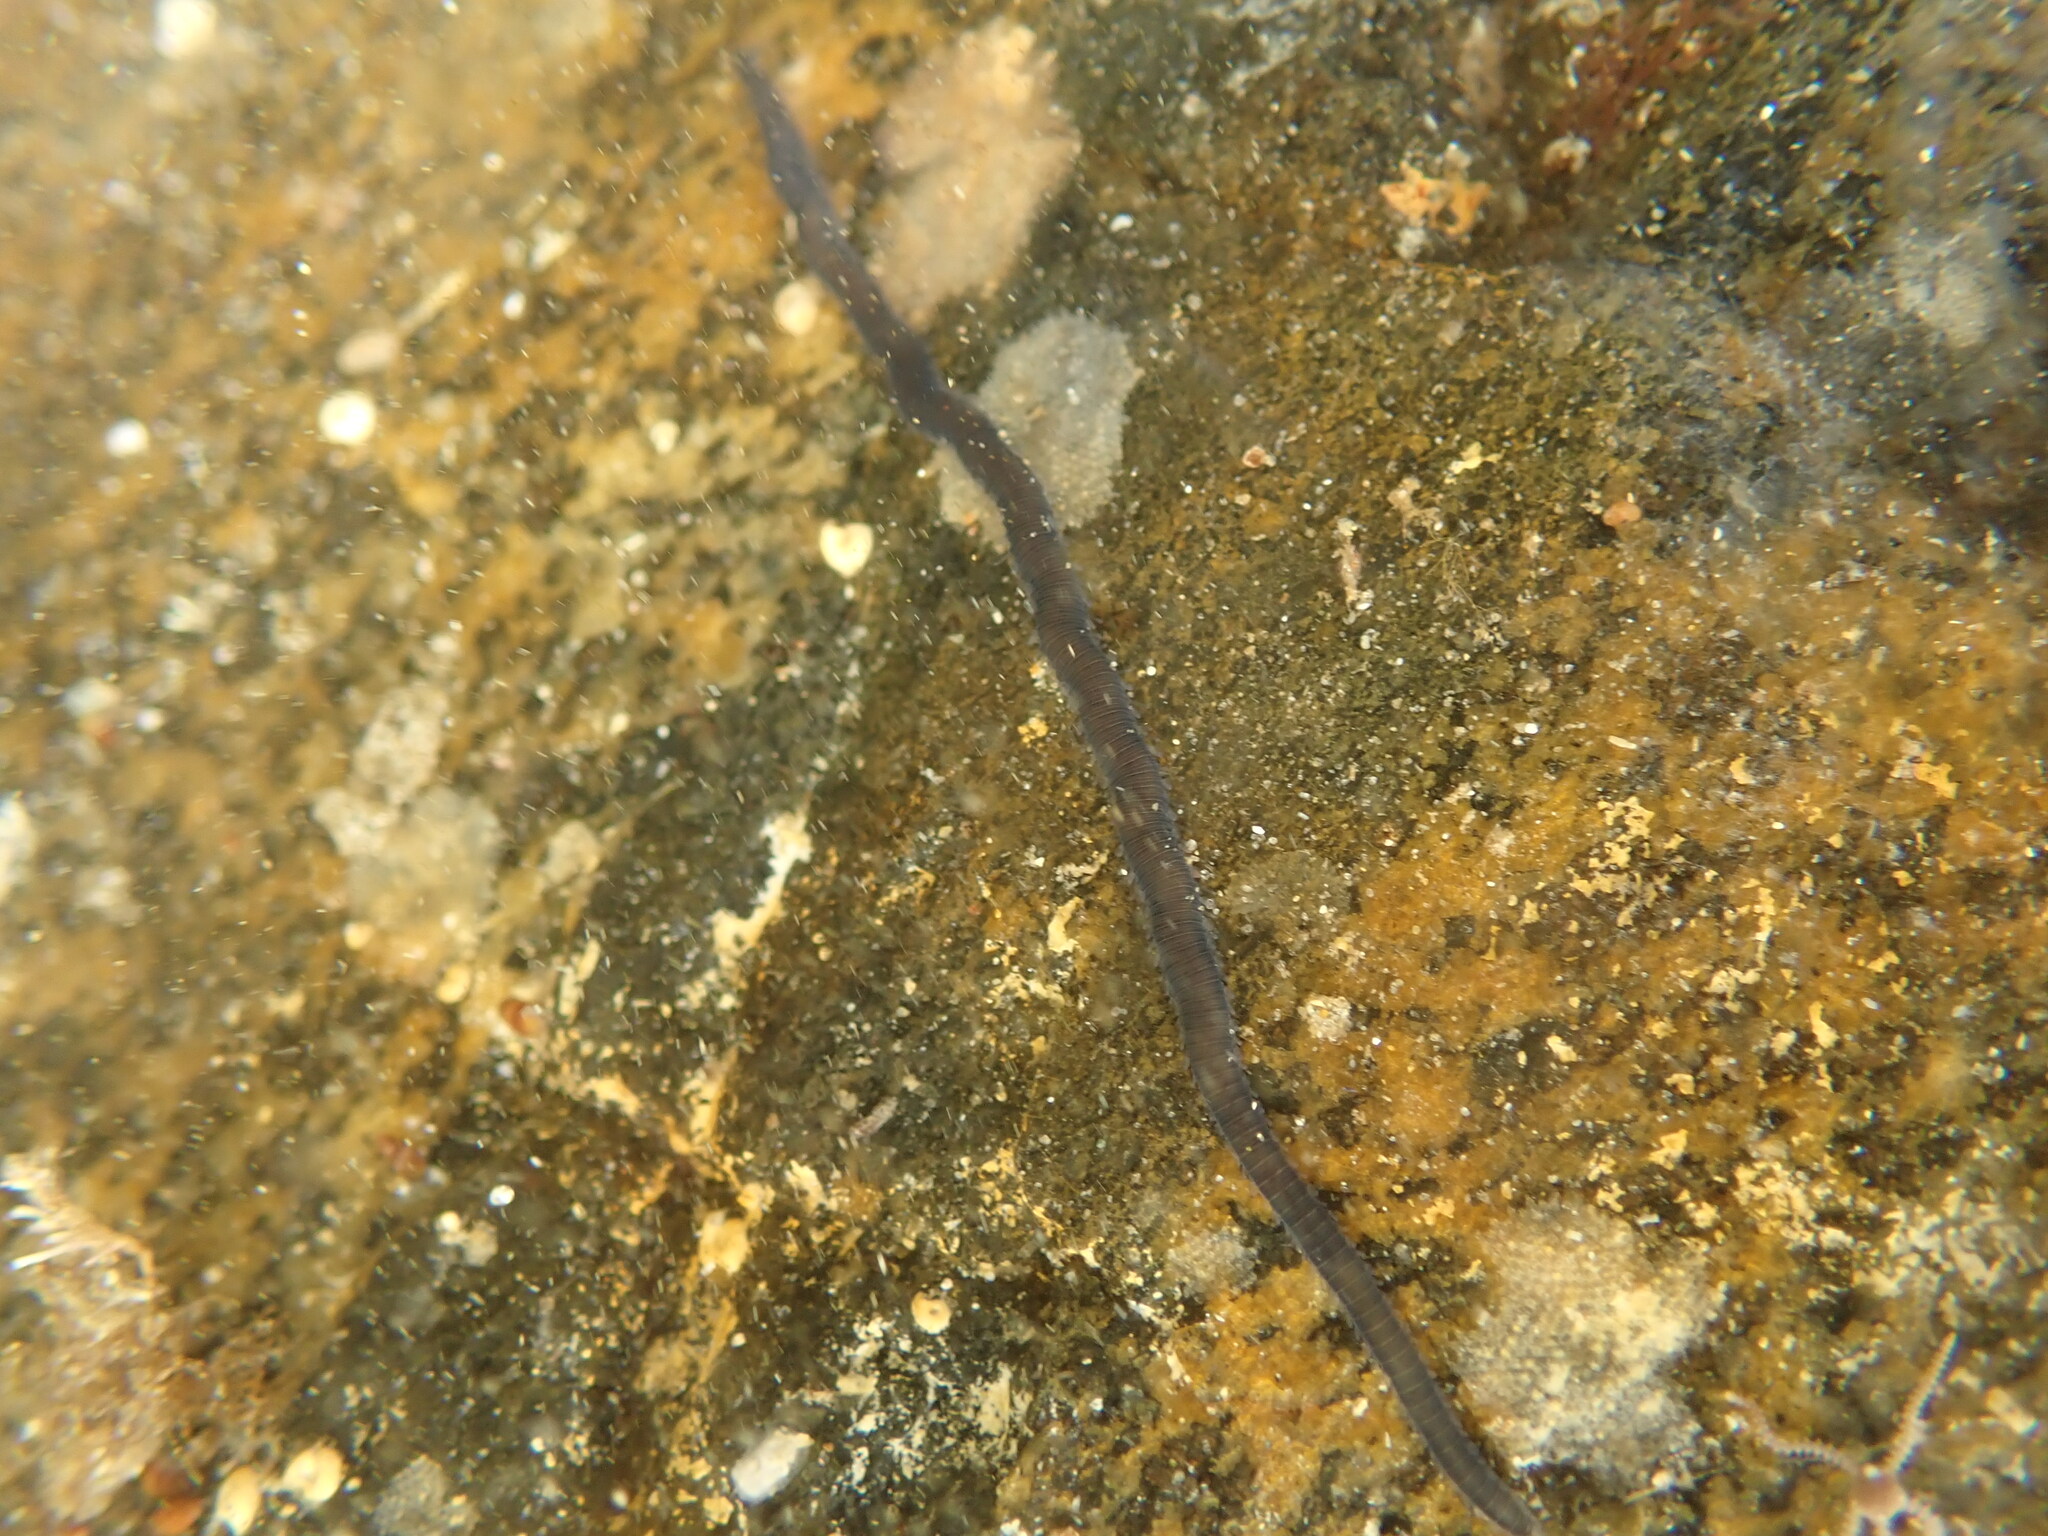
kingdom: Animalia
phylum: Annelida
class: Polychaeta
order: Phyllodocida
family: Syllidae
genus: Odontosyllis
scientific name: Odontosyllis polycera
